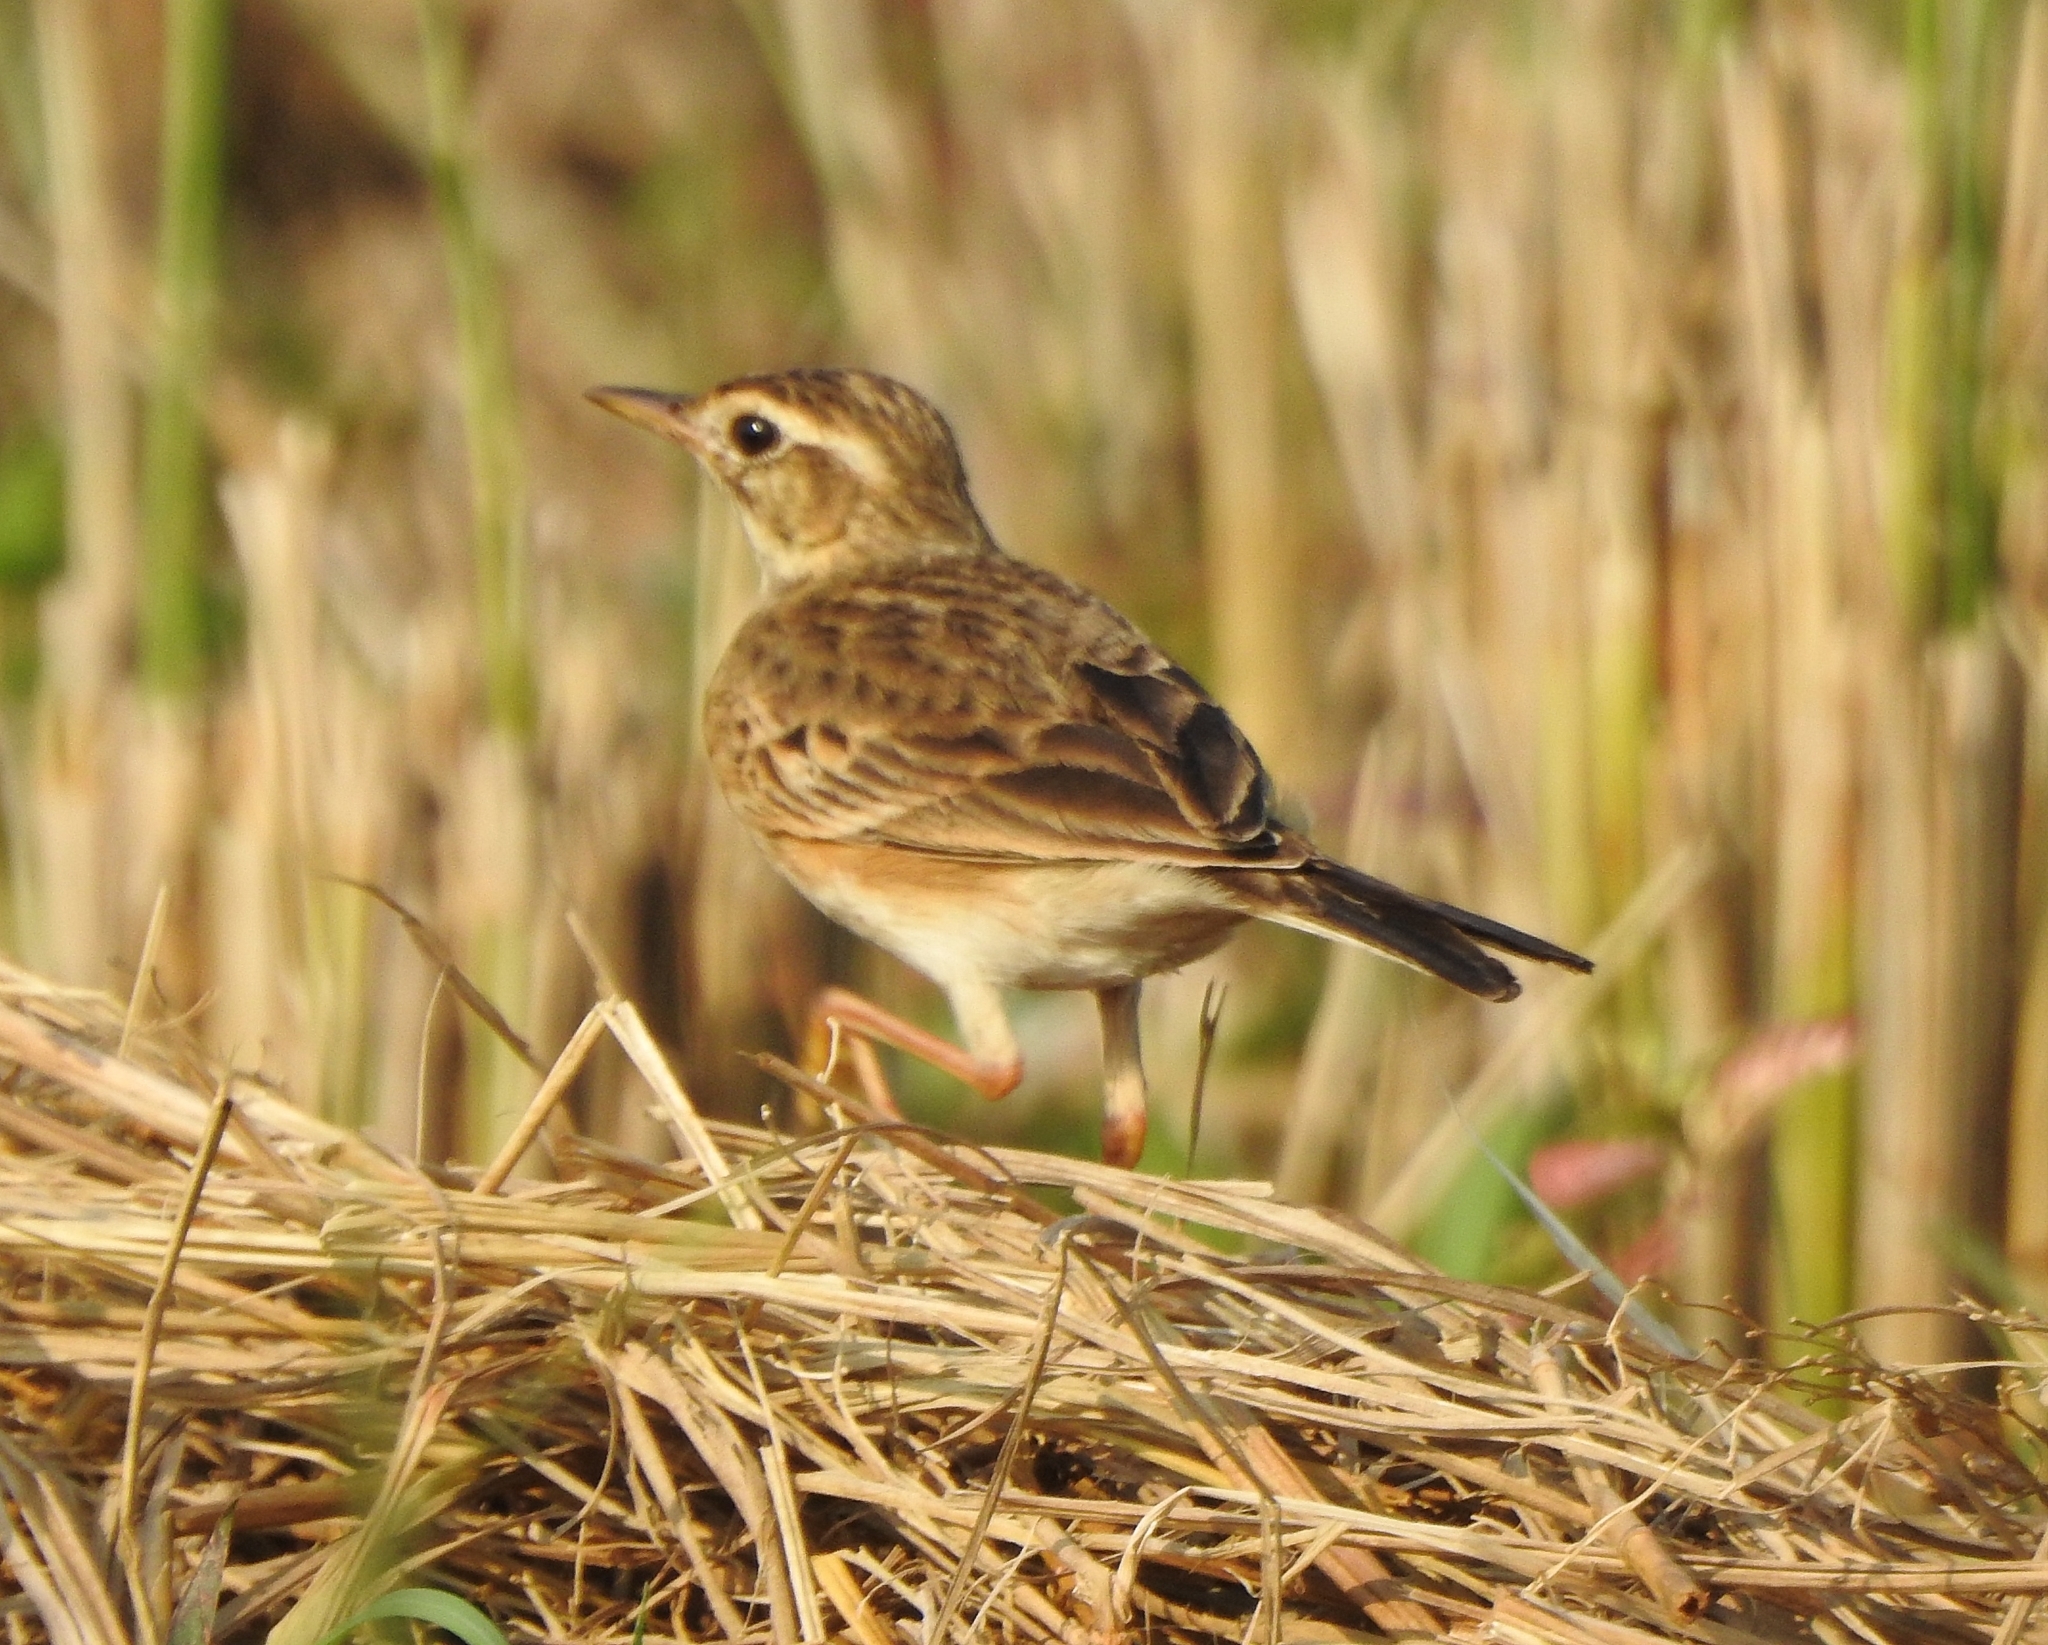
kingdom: Animalia
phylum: Chordata
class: Aves
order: Passeriformes
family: Motacillidae
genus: Anthus
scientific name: Anthus rufulus
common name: Paddyfield pipit
